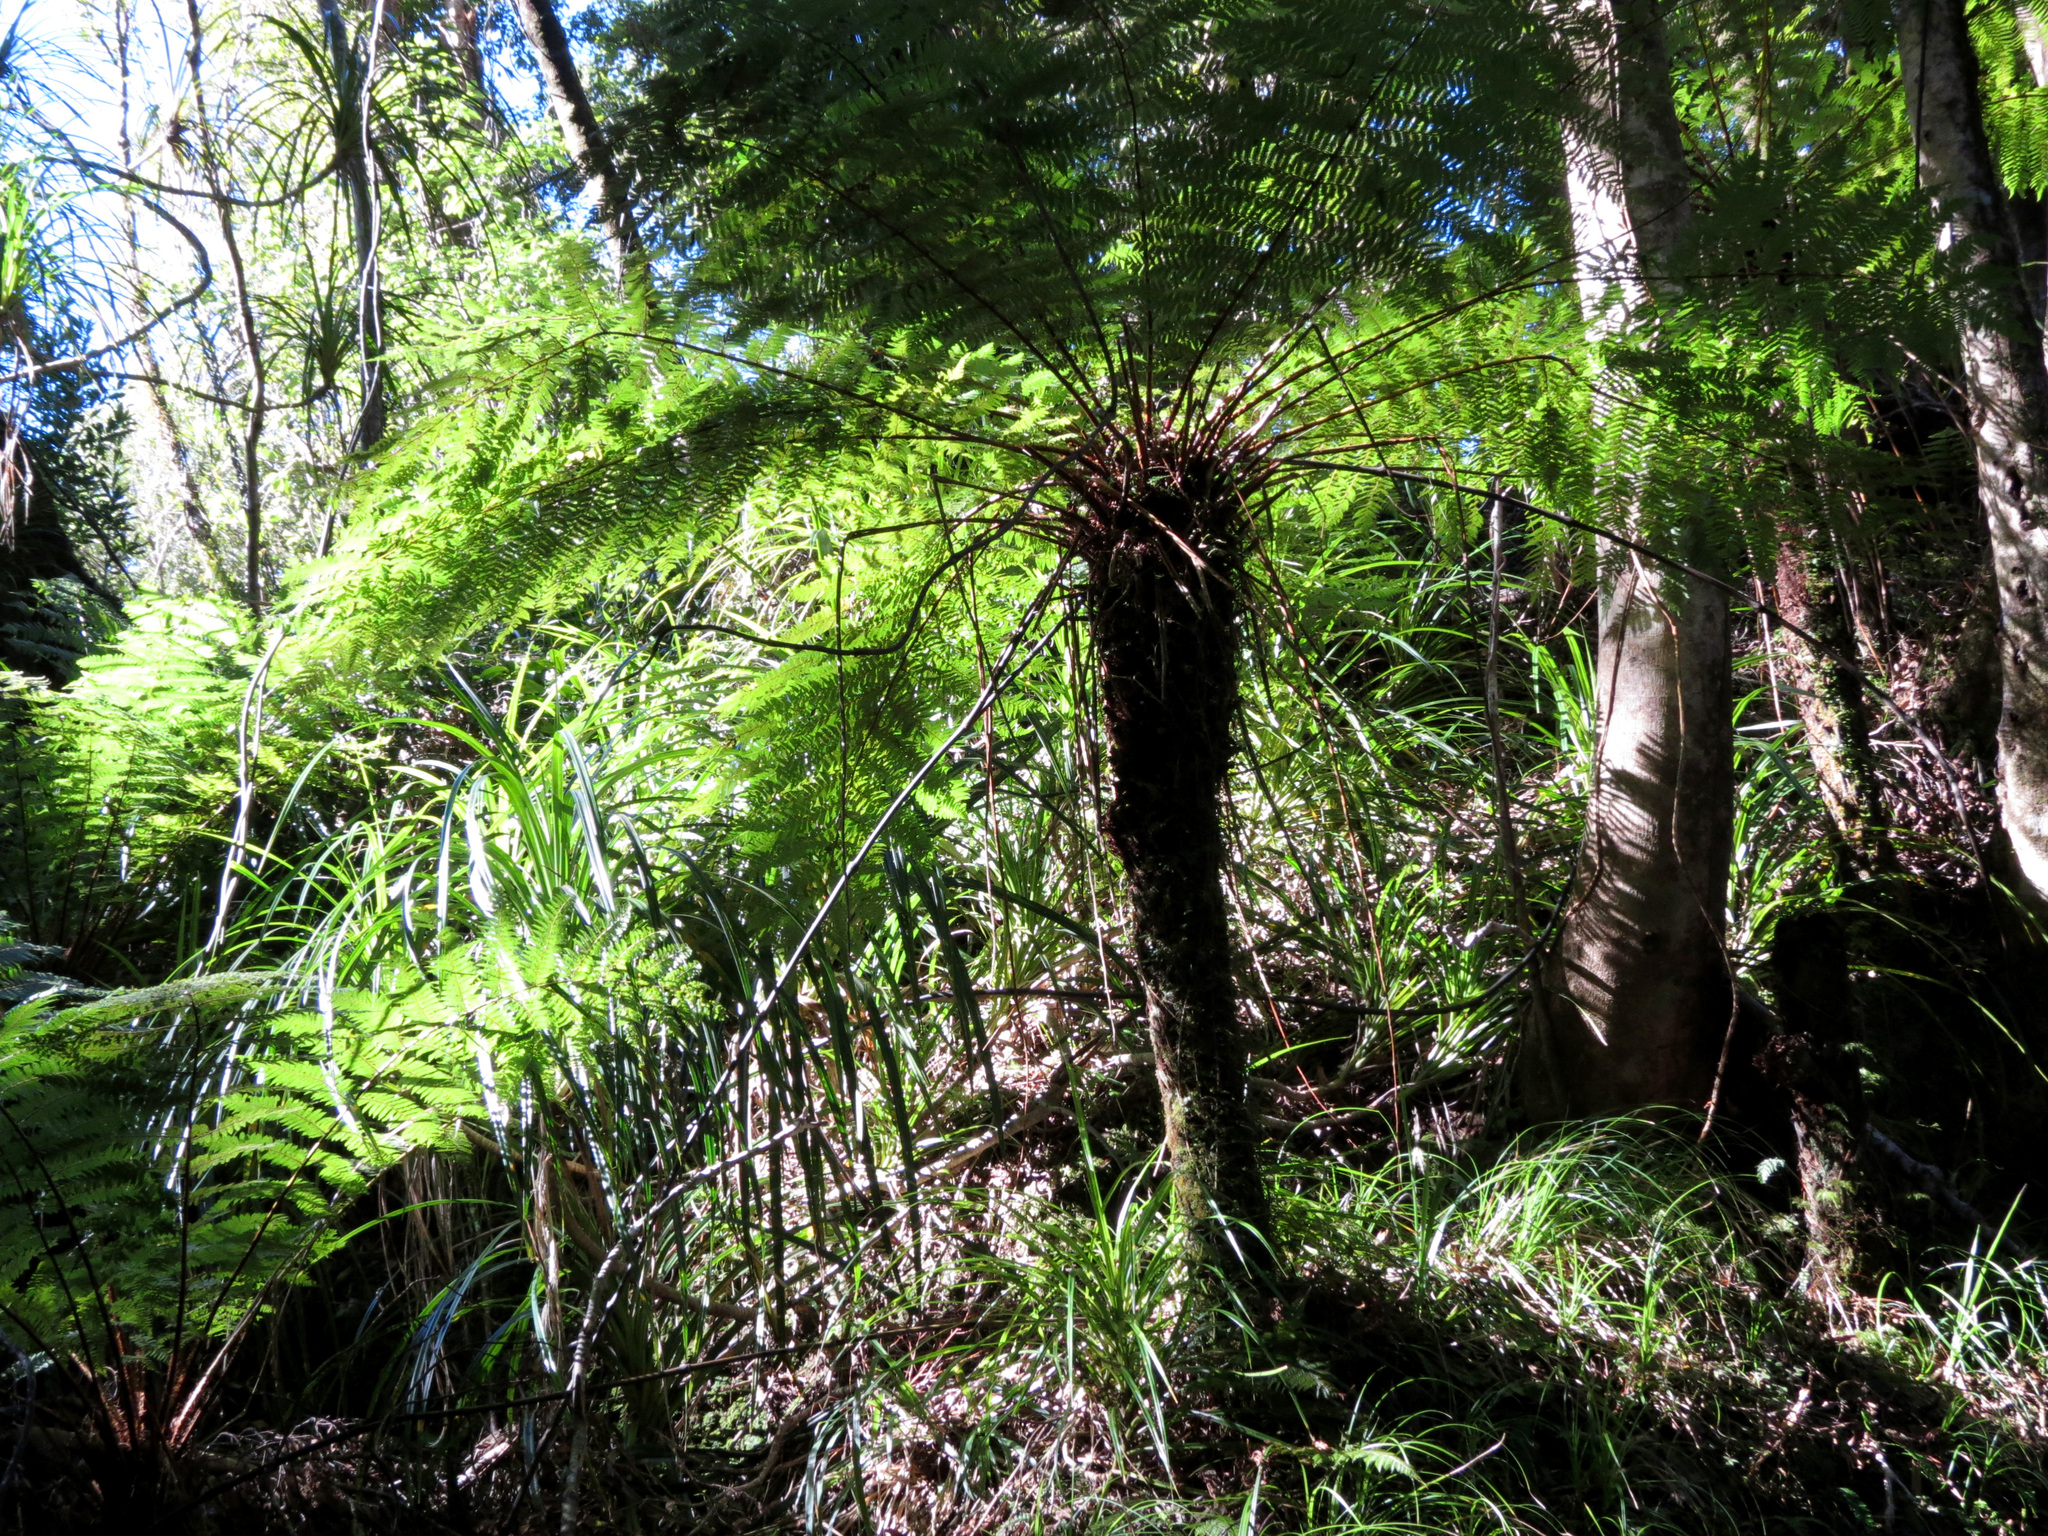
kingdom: Plantae
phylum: Tracheophyta
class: Polypodiopsida
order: Cyatheales
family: Cyatheaceae
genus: Alsophila
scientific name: Alsophila smithii
